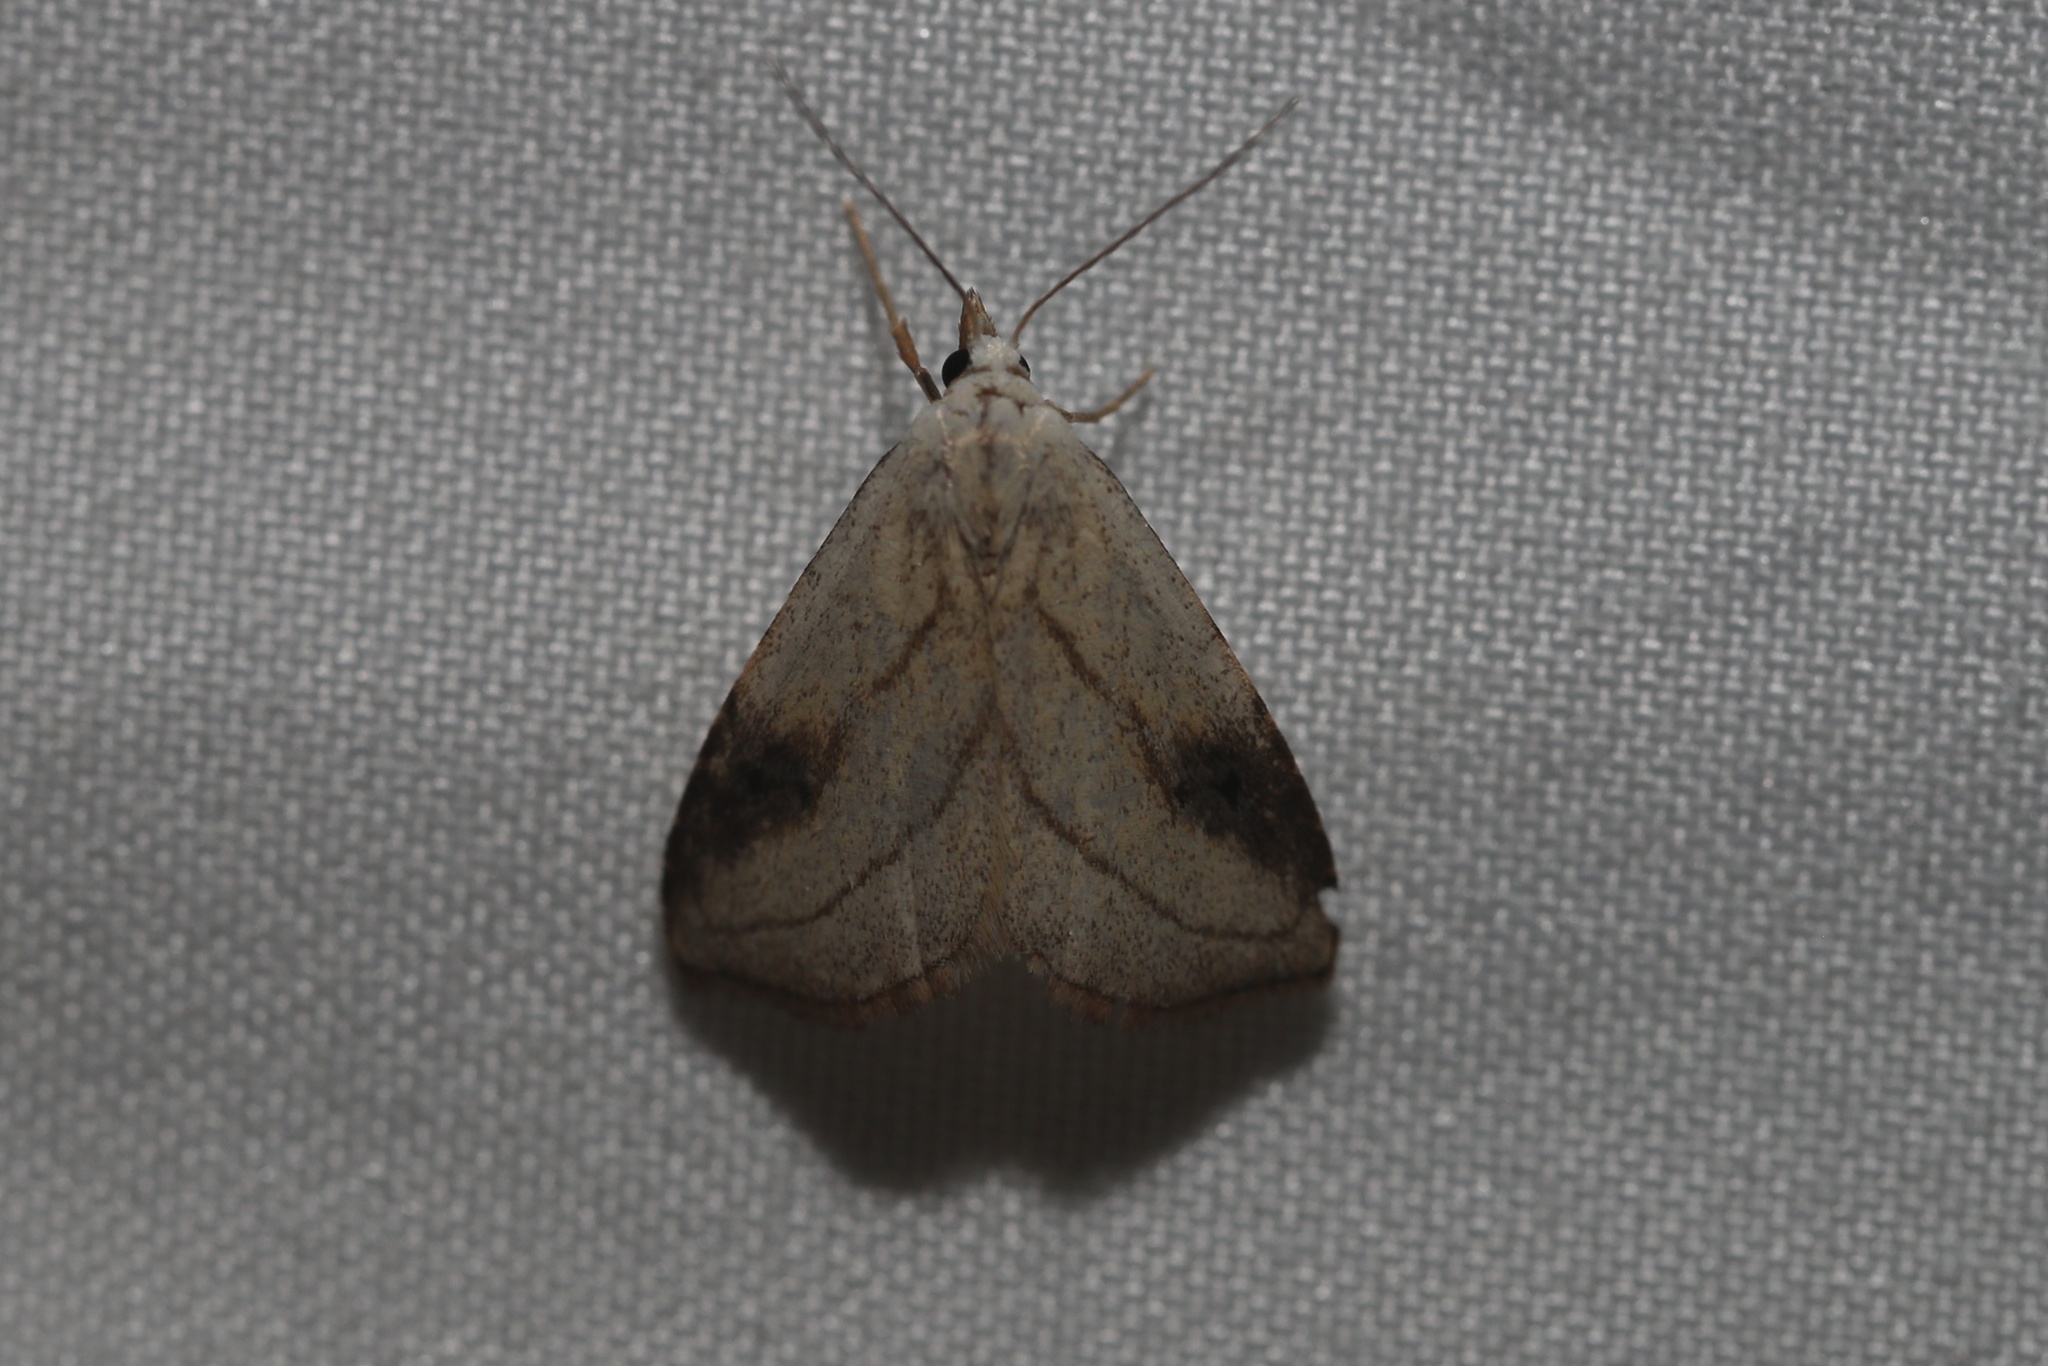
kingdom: Animalia
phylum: Arthropoda
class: Insecta
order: Lepidoptera
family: Erebidae
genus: Rivula
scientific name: Rivula propinqualis
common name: Spotted grass moth
